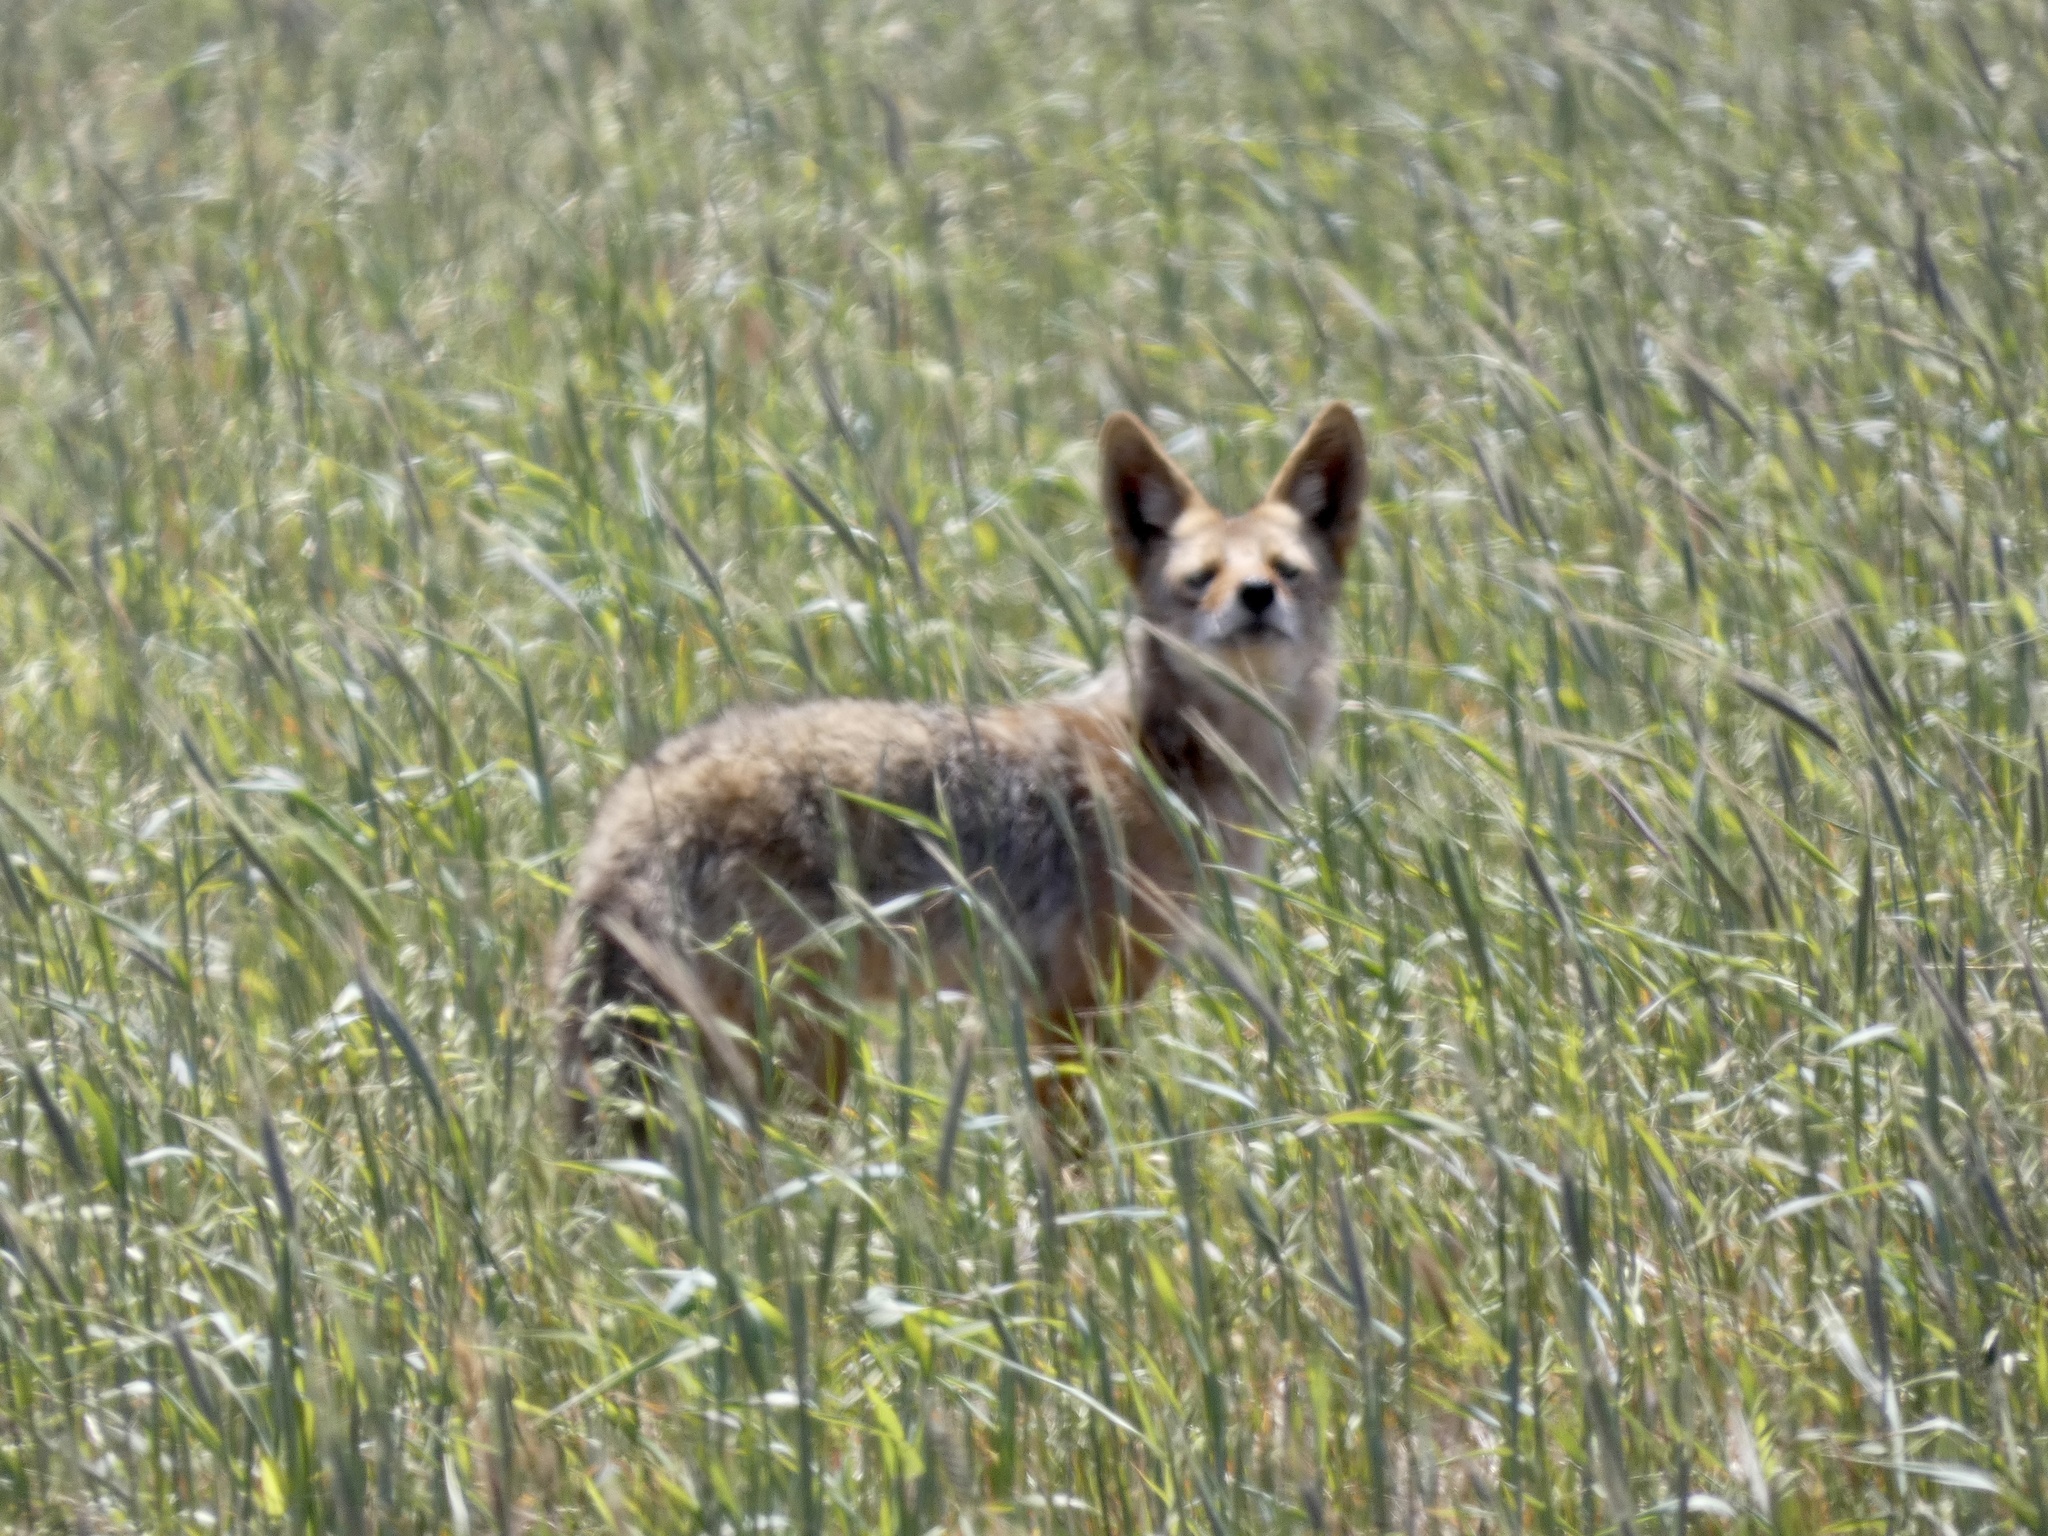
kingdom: Animalia
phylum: Chordata
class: Mammalia
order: Carnivora
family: Canidae
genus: Canis
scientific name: Canis latrans
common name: Coyote
